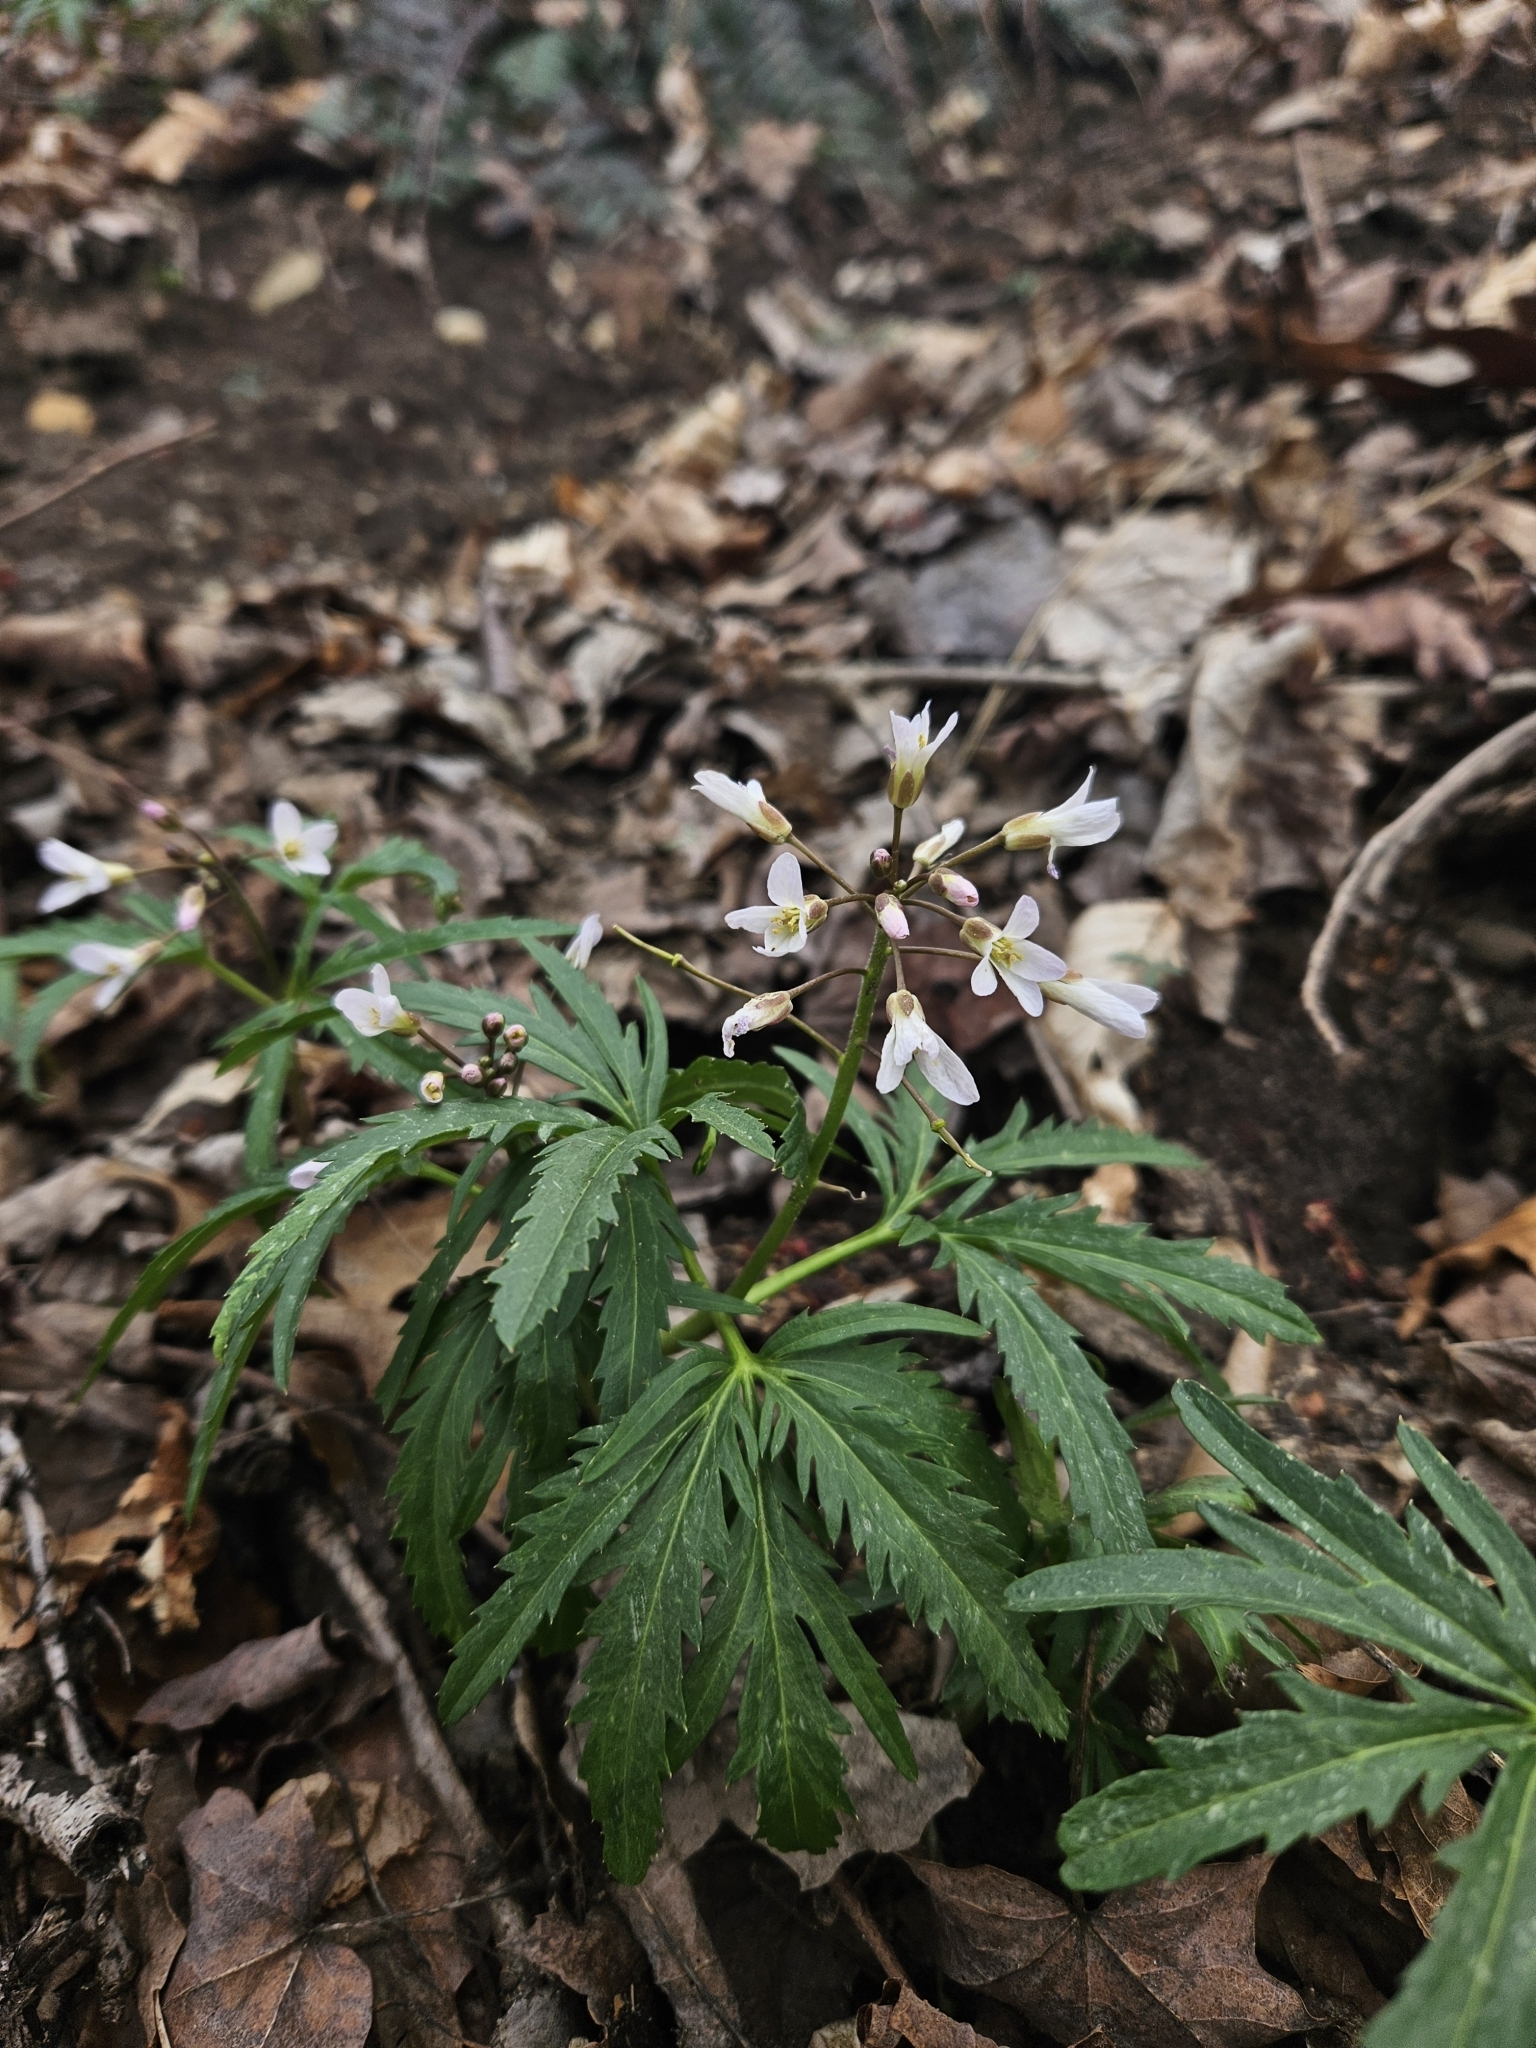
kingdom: Plantae
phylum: Tracheophyta
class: Magnoliopsida
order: Brassicales
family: Brassicaceae
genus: Cardamine
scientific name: Cardamine concatenata
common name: Cut-leaf toothcup
